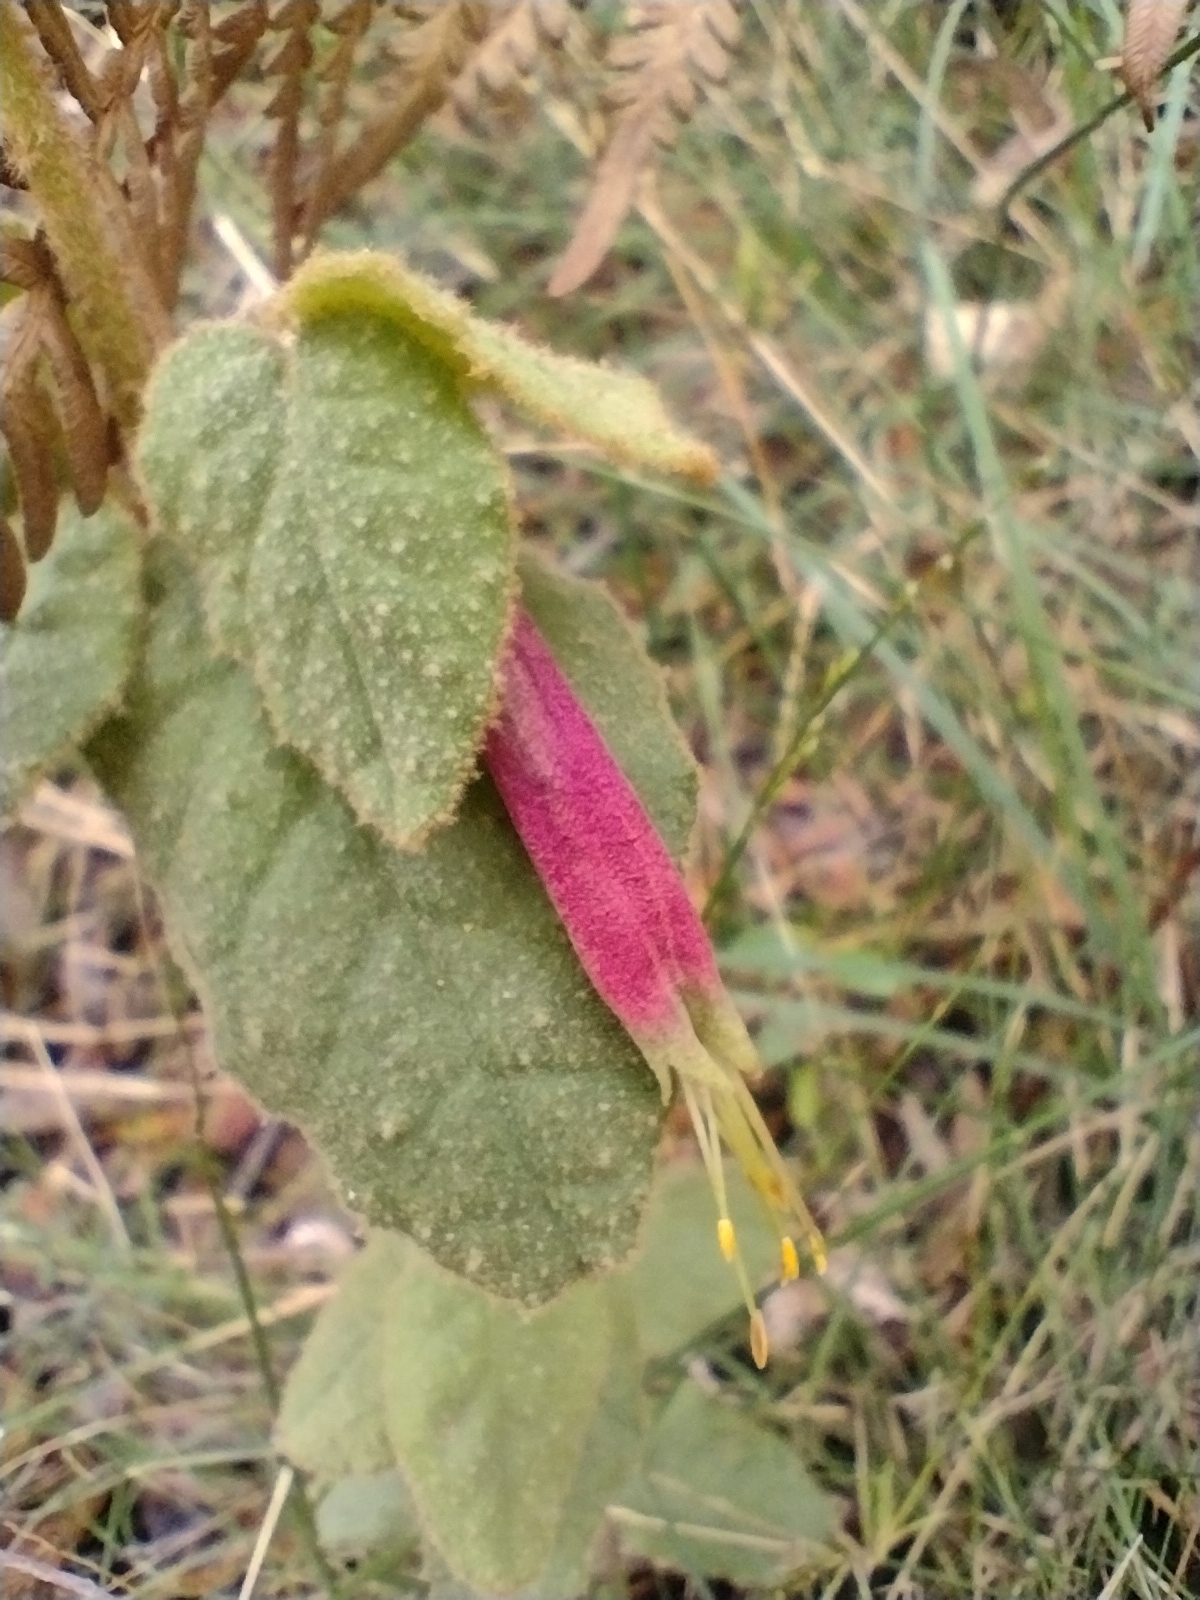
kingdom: Plantae
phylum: Tracheophyta
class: Magnoliopsida
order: Sapindales
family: Rutaceae
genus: Correa
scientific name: Correa reflexa
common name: Common correa
